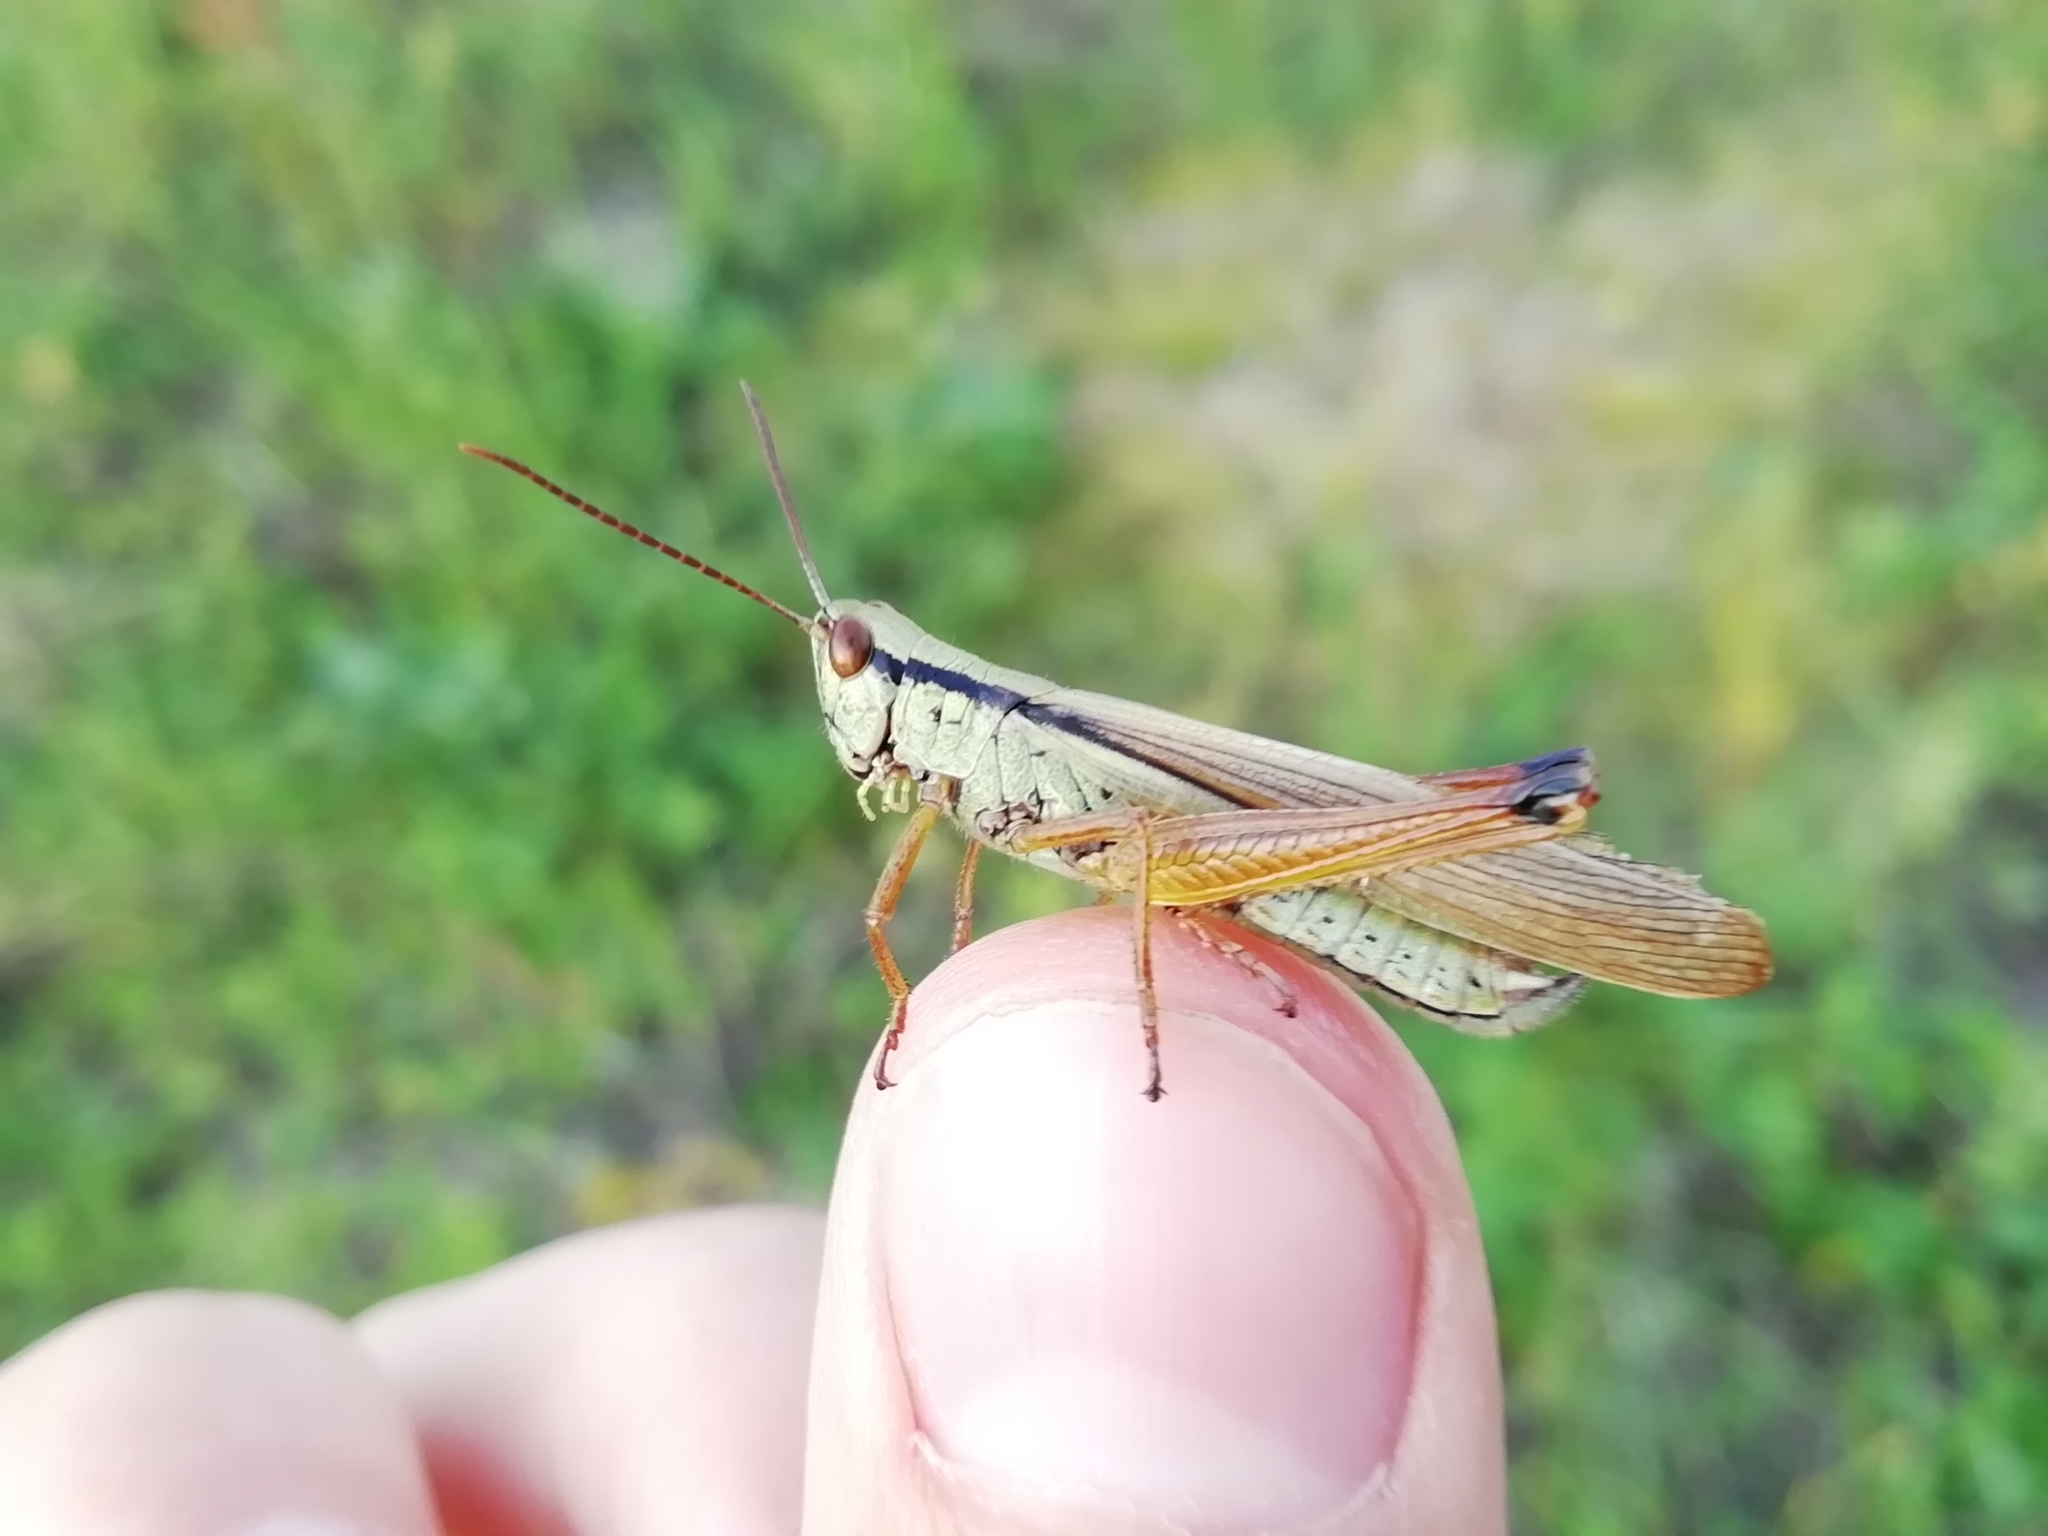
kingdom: Animalia
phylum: Arthropoda
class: Insecta
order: Orthoptera
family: Acrididae
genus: Mecostethus
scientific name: Mecostethus parapleurus
